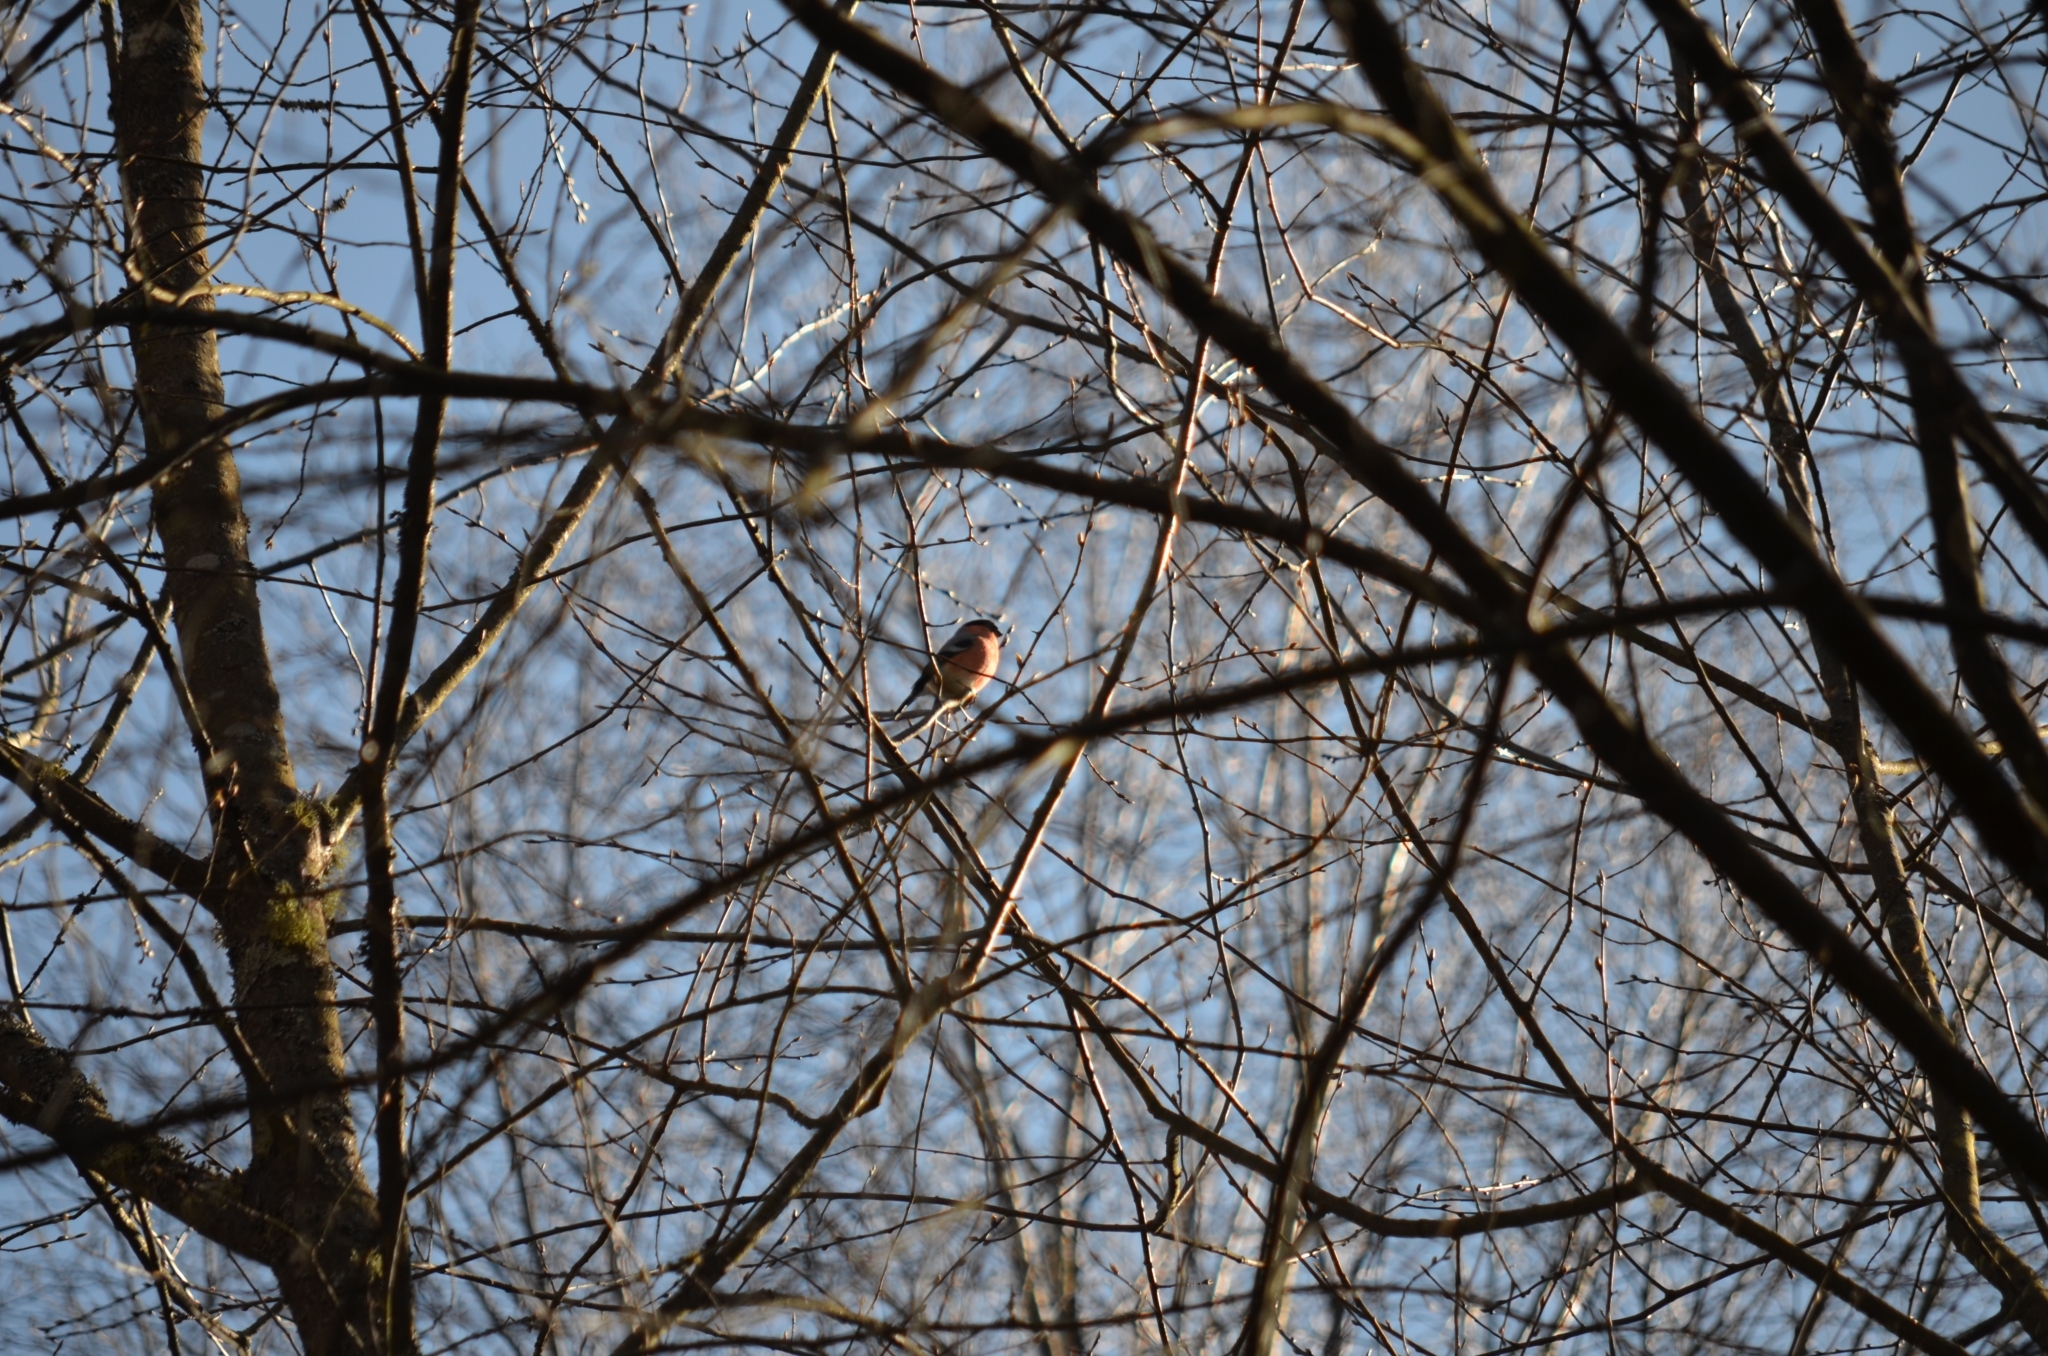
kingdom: Animalia
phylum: Chordata
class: Aves
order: Passeriformes
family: Fringillidae
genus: Pyrrhula
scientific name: Pyrrhula pyrrhula
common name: Eurasian bullfinch
